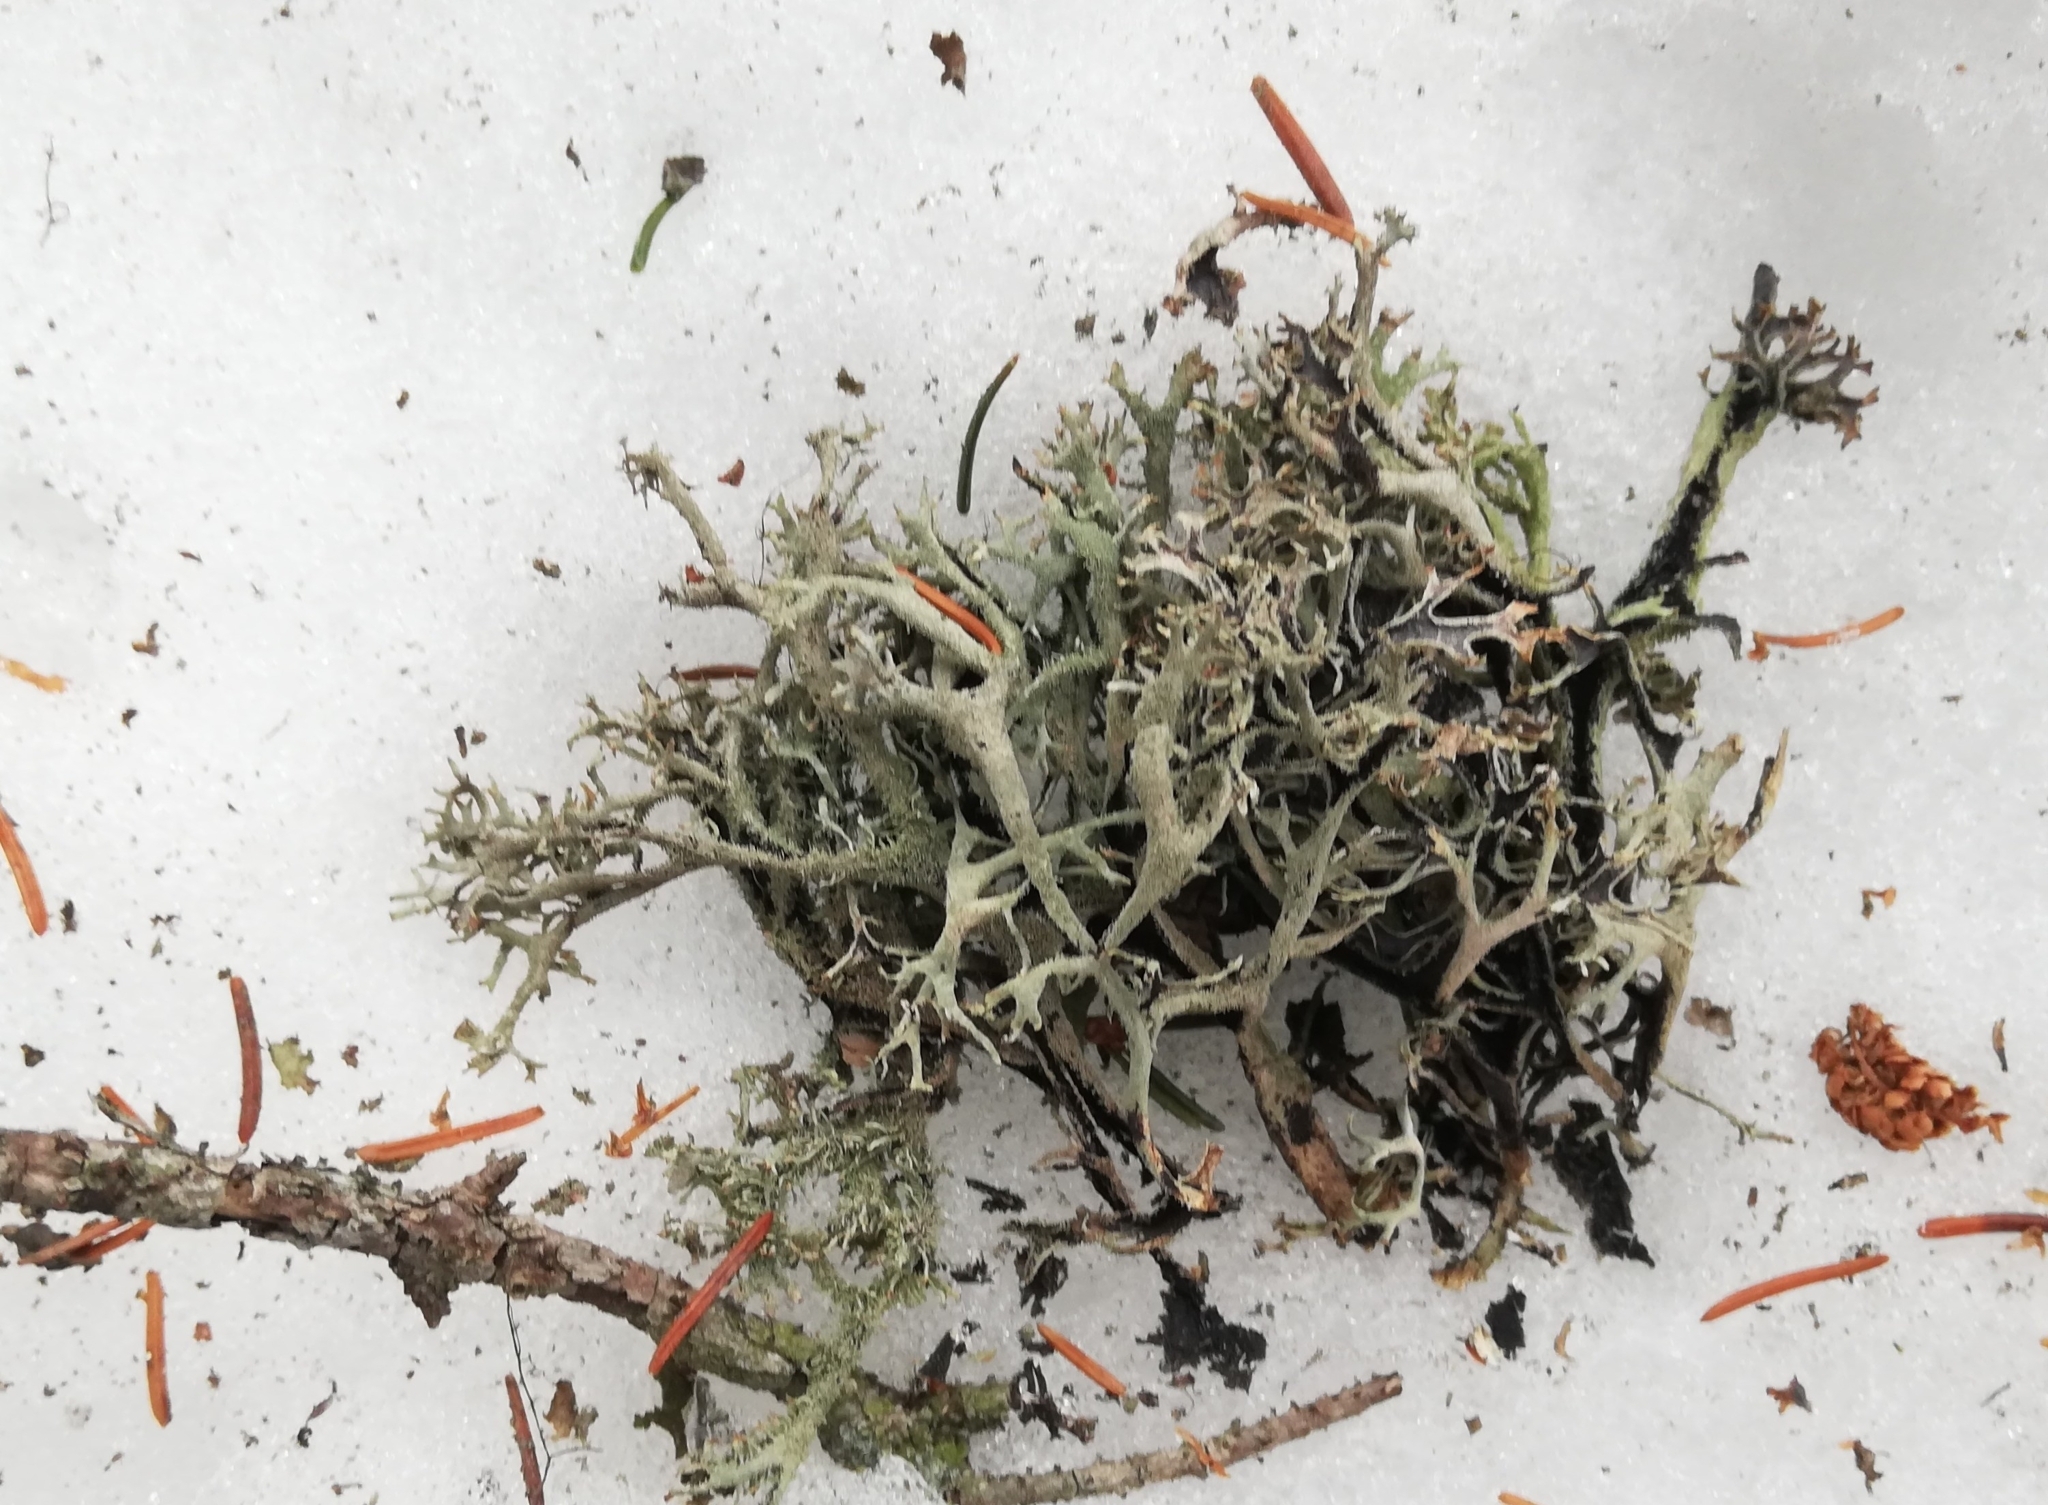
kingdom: Fungi
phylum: Ascomycota
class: Lecanoromycetes
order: Lecanorales
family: Parmeliaceae
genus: Pseudevernia
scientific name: Pseudevernia furfuracea
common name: Tree moss
